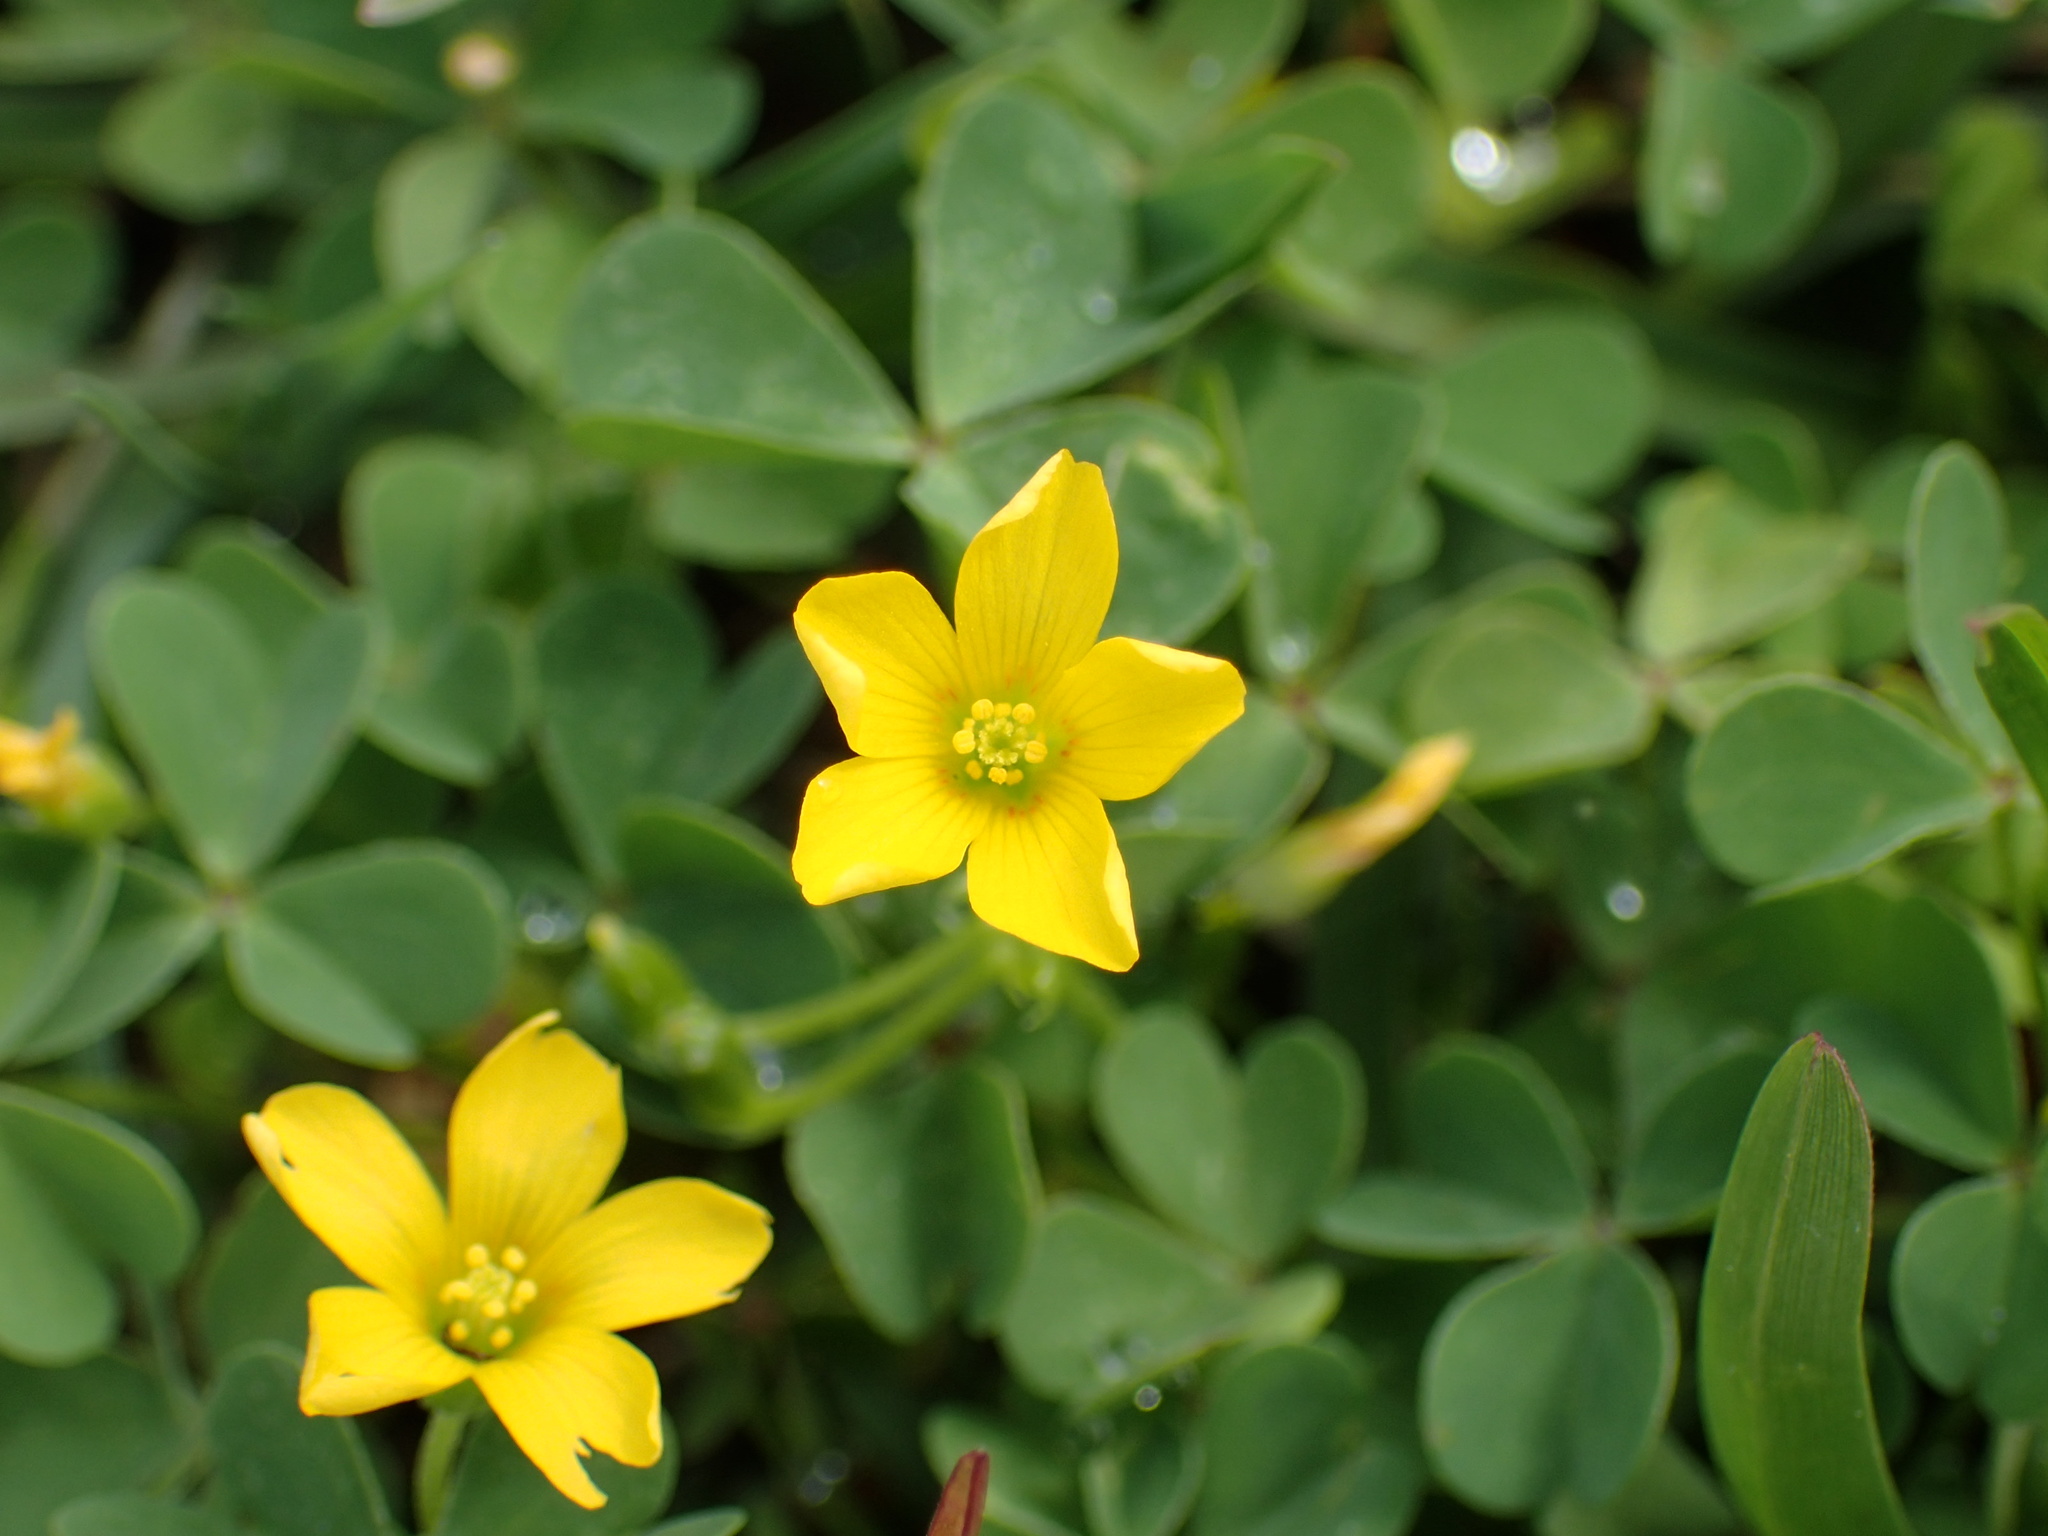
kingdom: Plantae
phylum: Tracheophyta
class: Magnoliopsida
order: Oxalidales
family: Oxalidaceae
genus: Oxalis
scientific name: Oxalis
